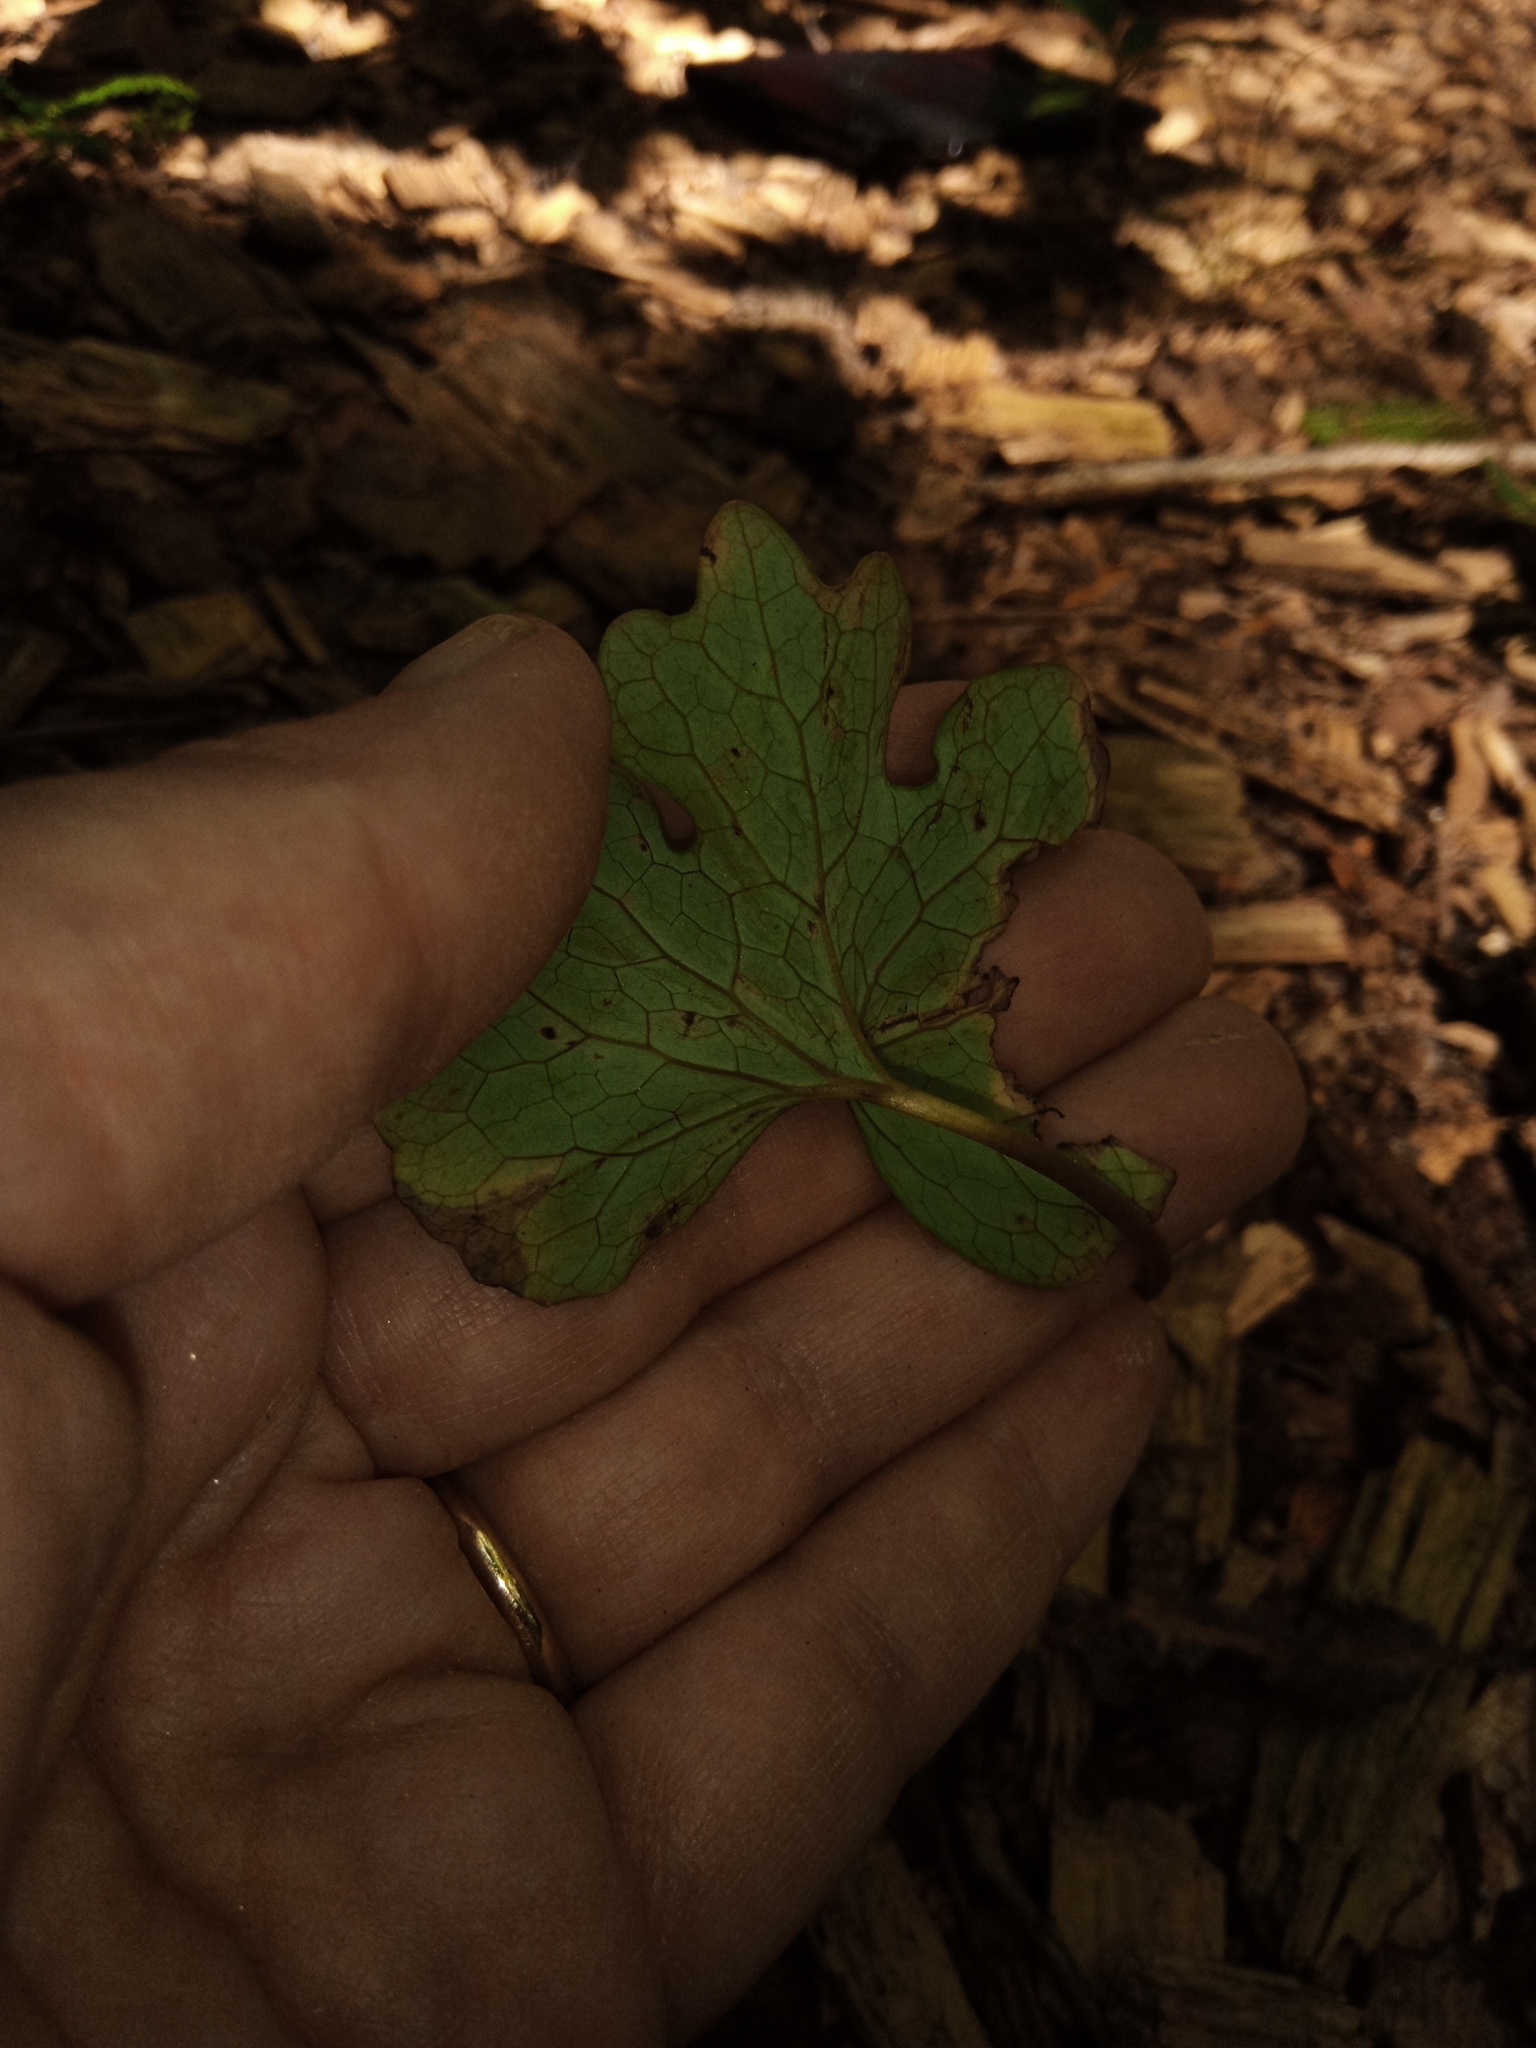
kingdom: Plantae
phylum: Tracheophyta
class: Magnoliopsida
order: Ranunculales
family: Papaveraceae
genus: Sanguinaria
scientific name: Sanguinaria canadensis
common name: Bloodroot
